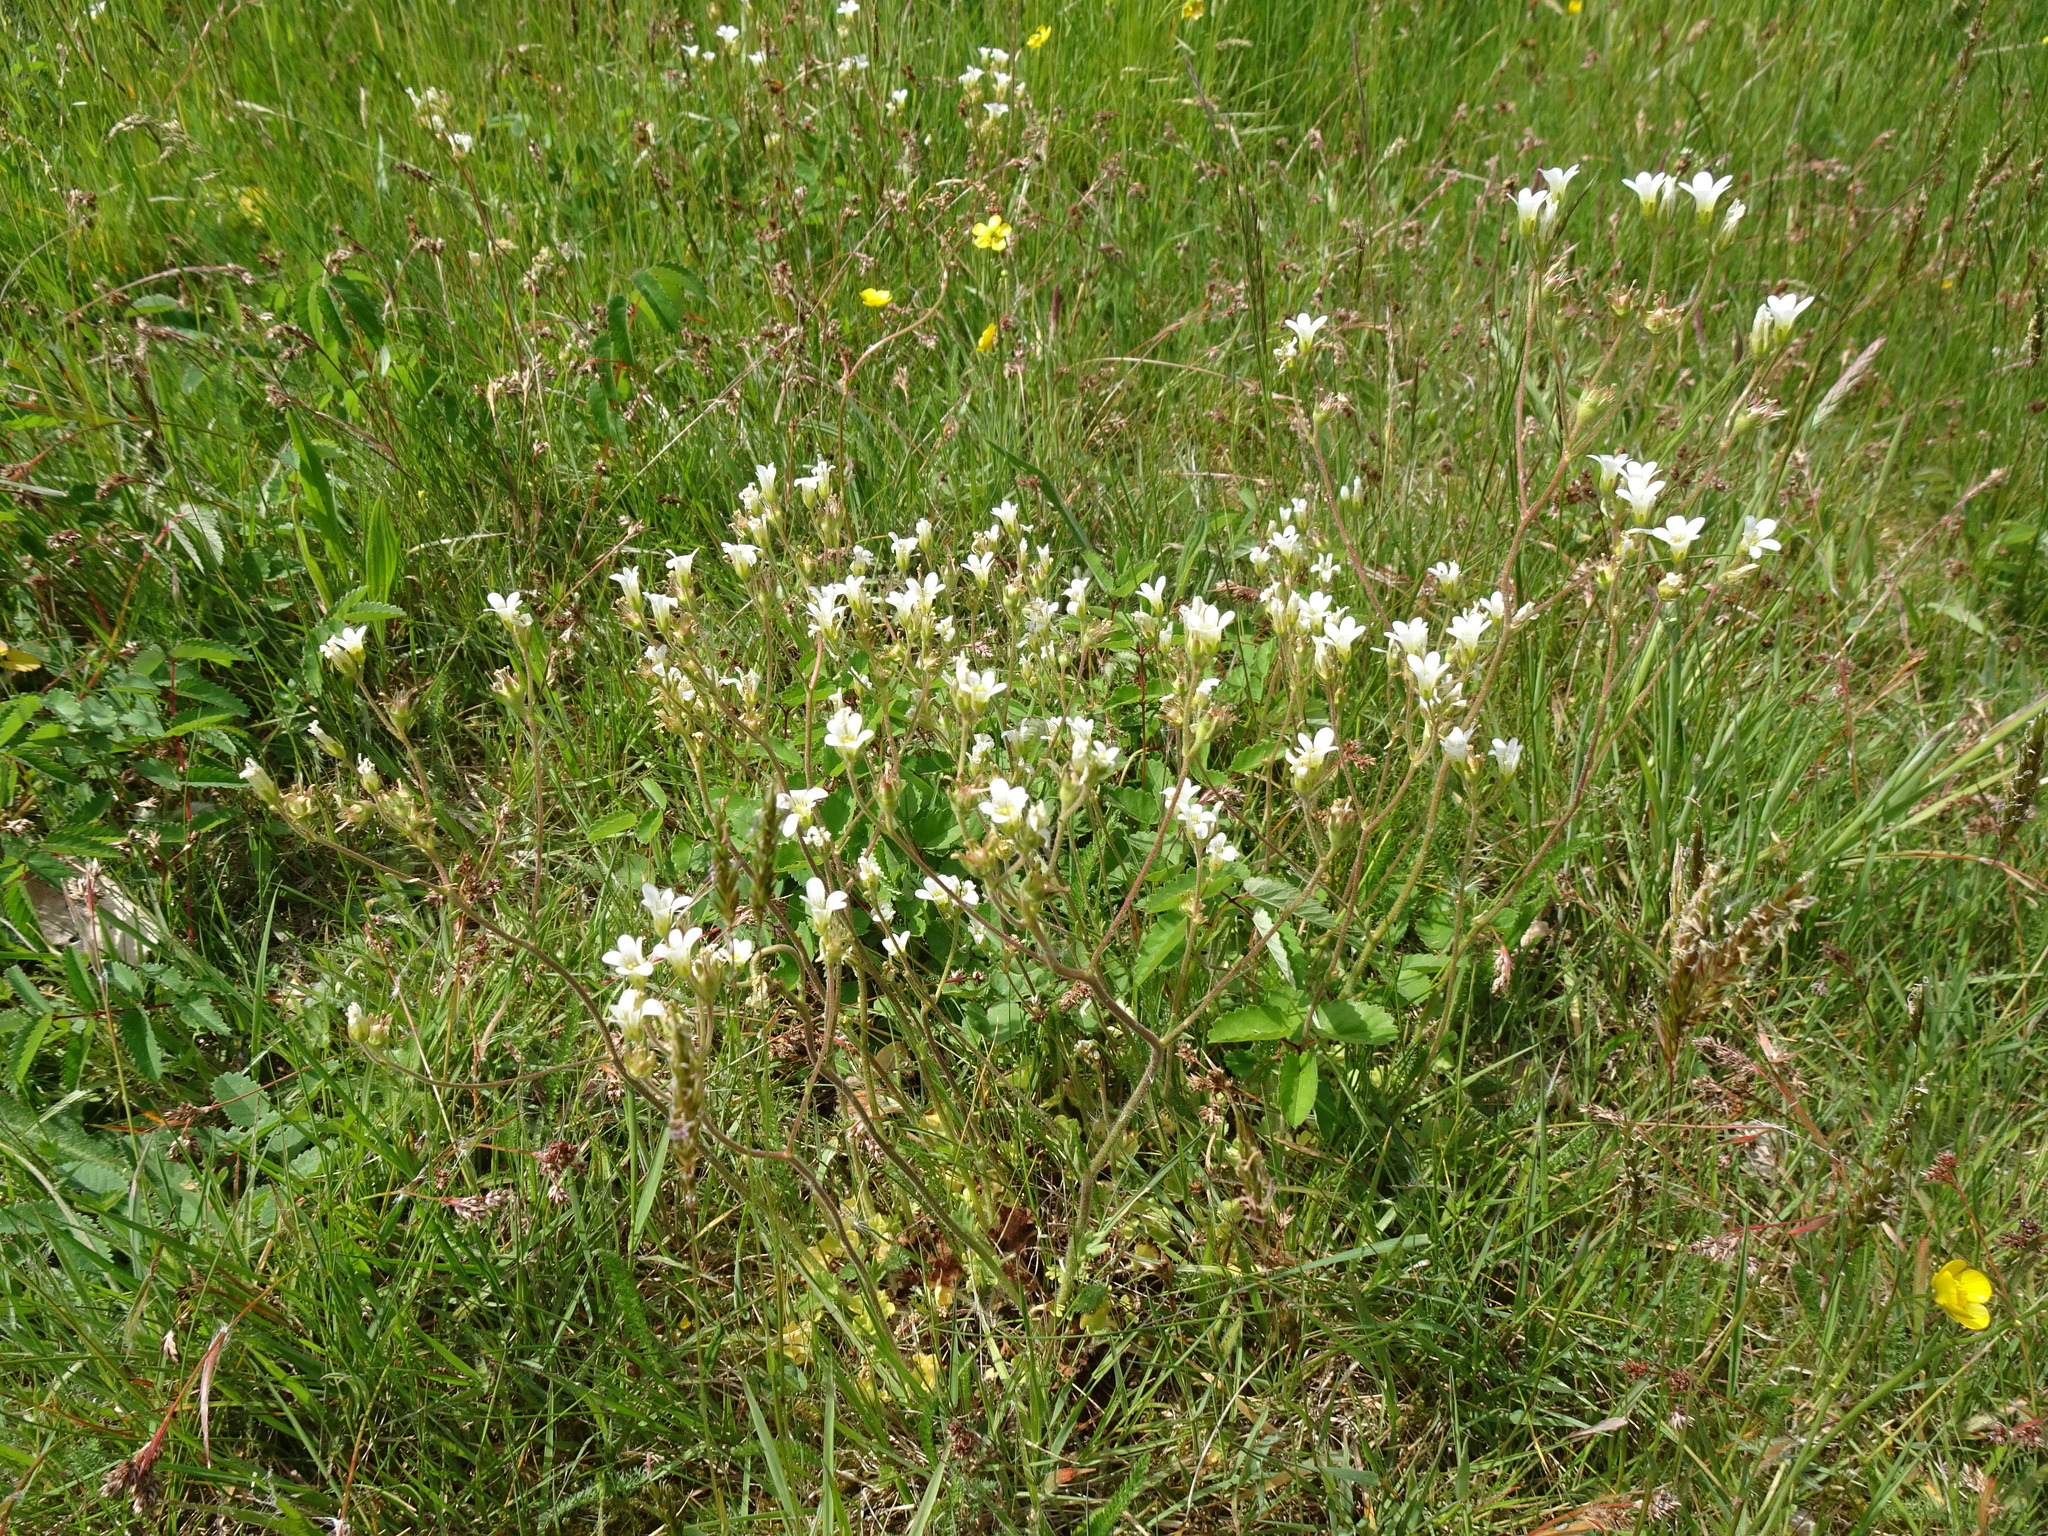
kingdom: Plantae
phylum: Tracheophyta
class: Magnoliopsida
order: Saxifragales
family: Saxifragaceae
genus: Saxifraga
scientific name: Saxifraga granulata
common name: Meadow saxifrage
